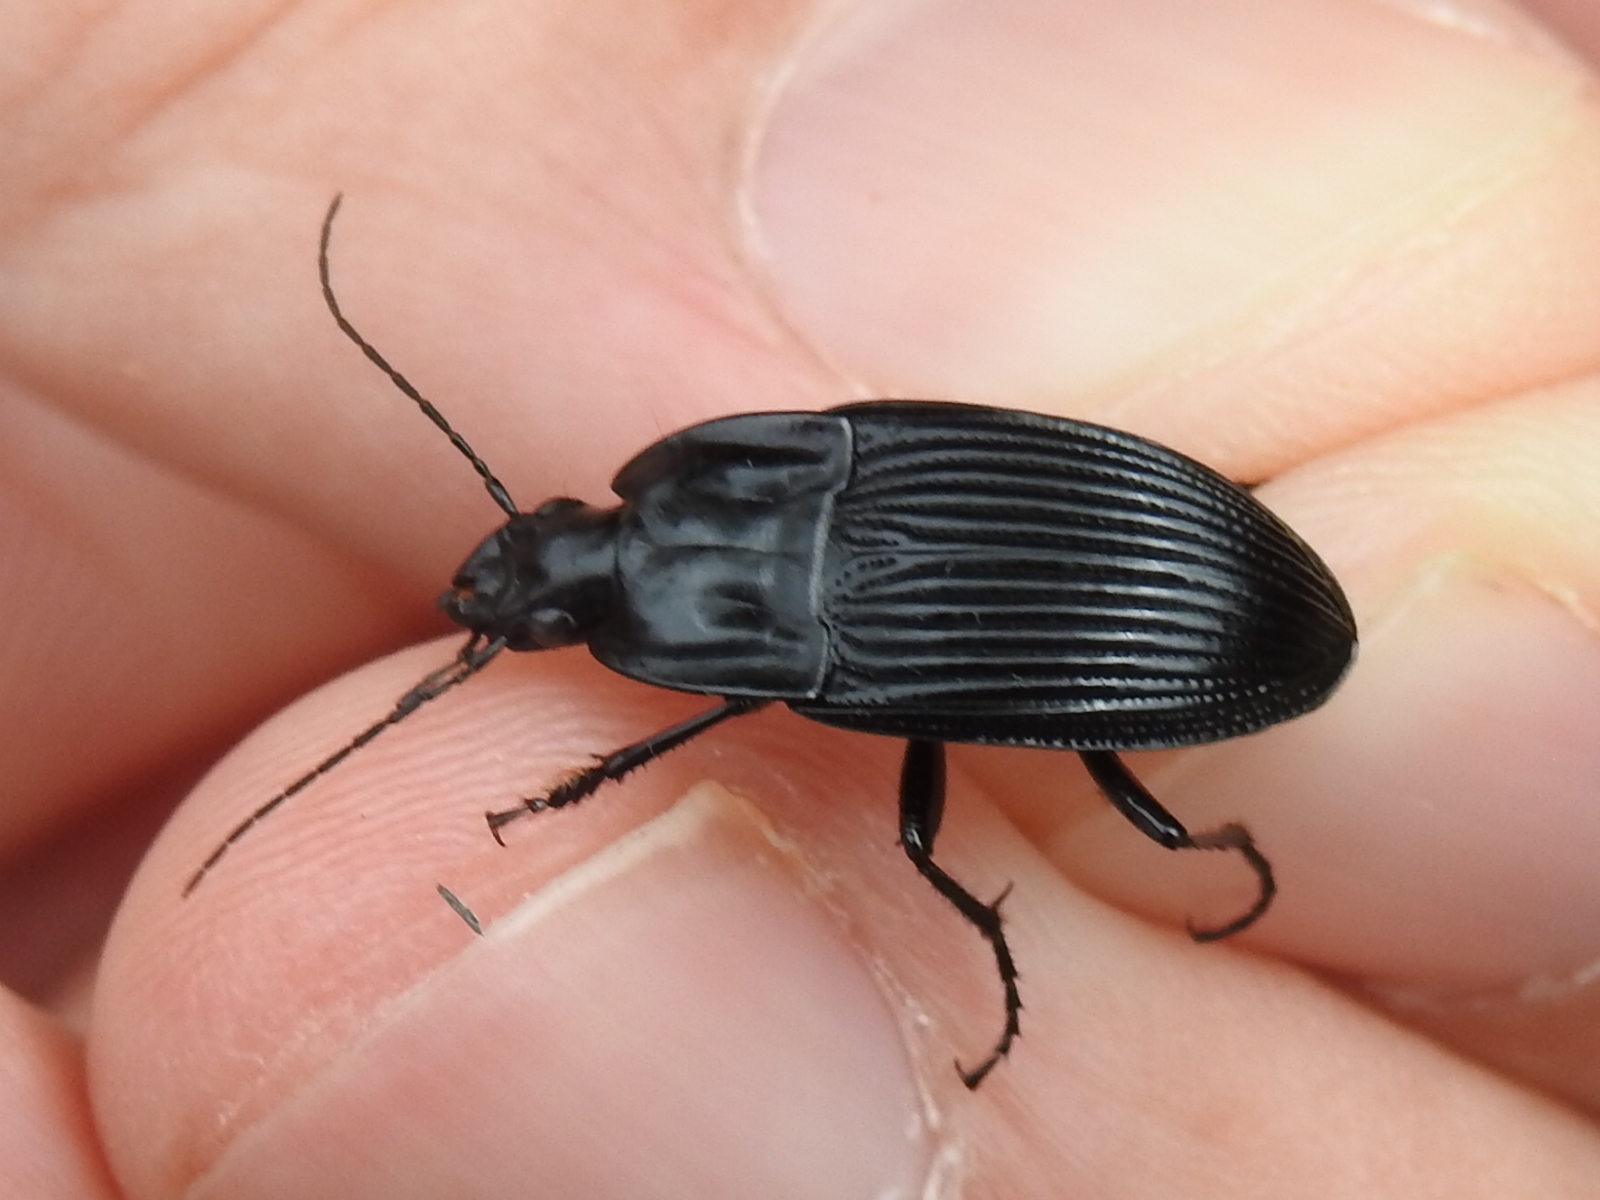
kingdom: Animalia
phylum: Arthropoda
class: Insecta
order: Coleoptera
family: Carabidae
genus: Dicaelus
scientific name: Dicaelus crenatus
